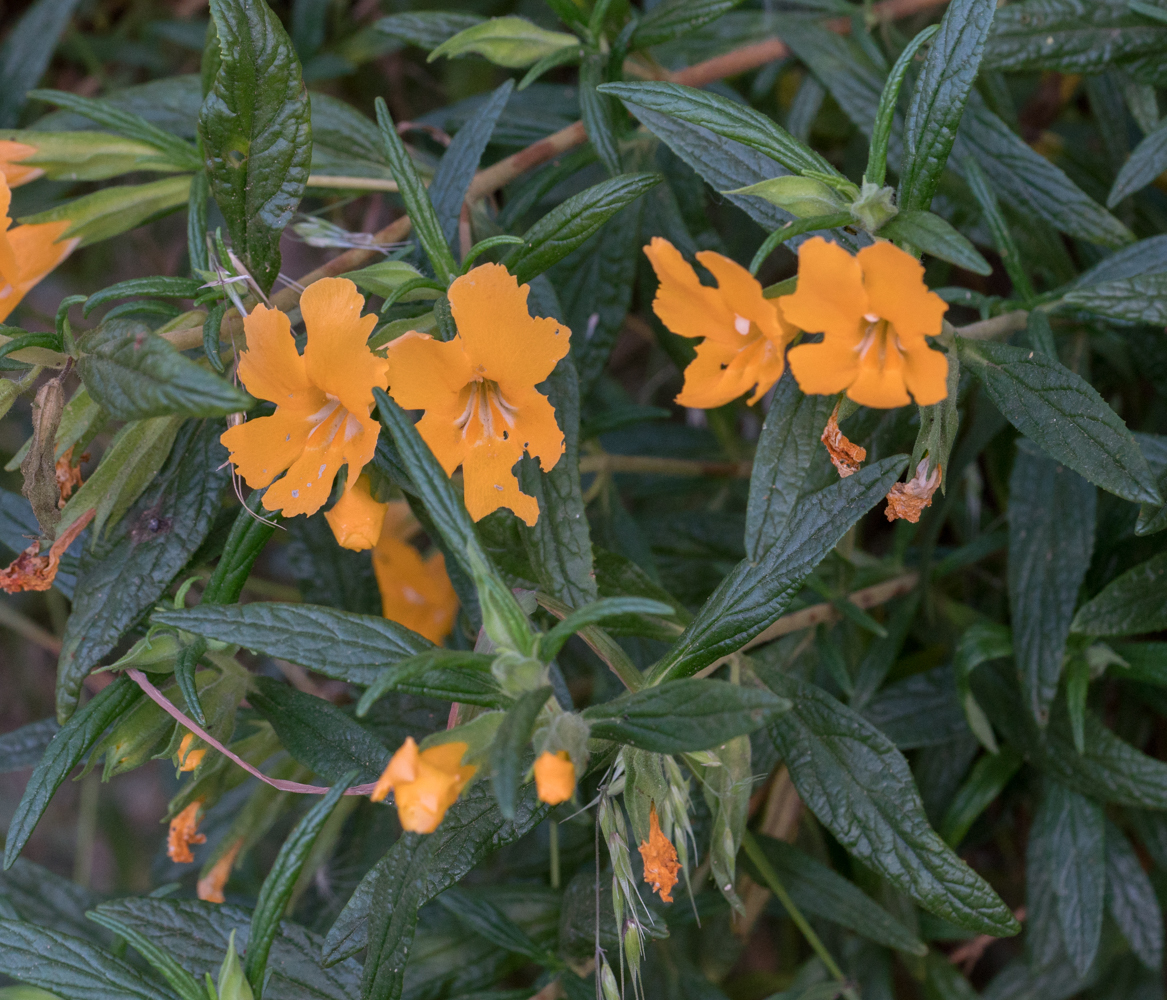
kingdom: Plantae
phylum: Tracheophyta
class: Magnoliopsida
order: Lamiales
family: Phrymaceae
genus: Diplacus
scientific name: Diplacus longiflorus
